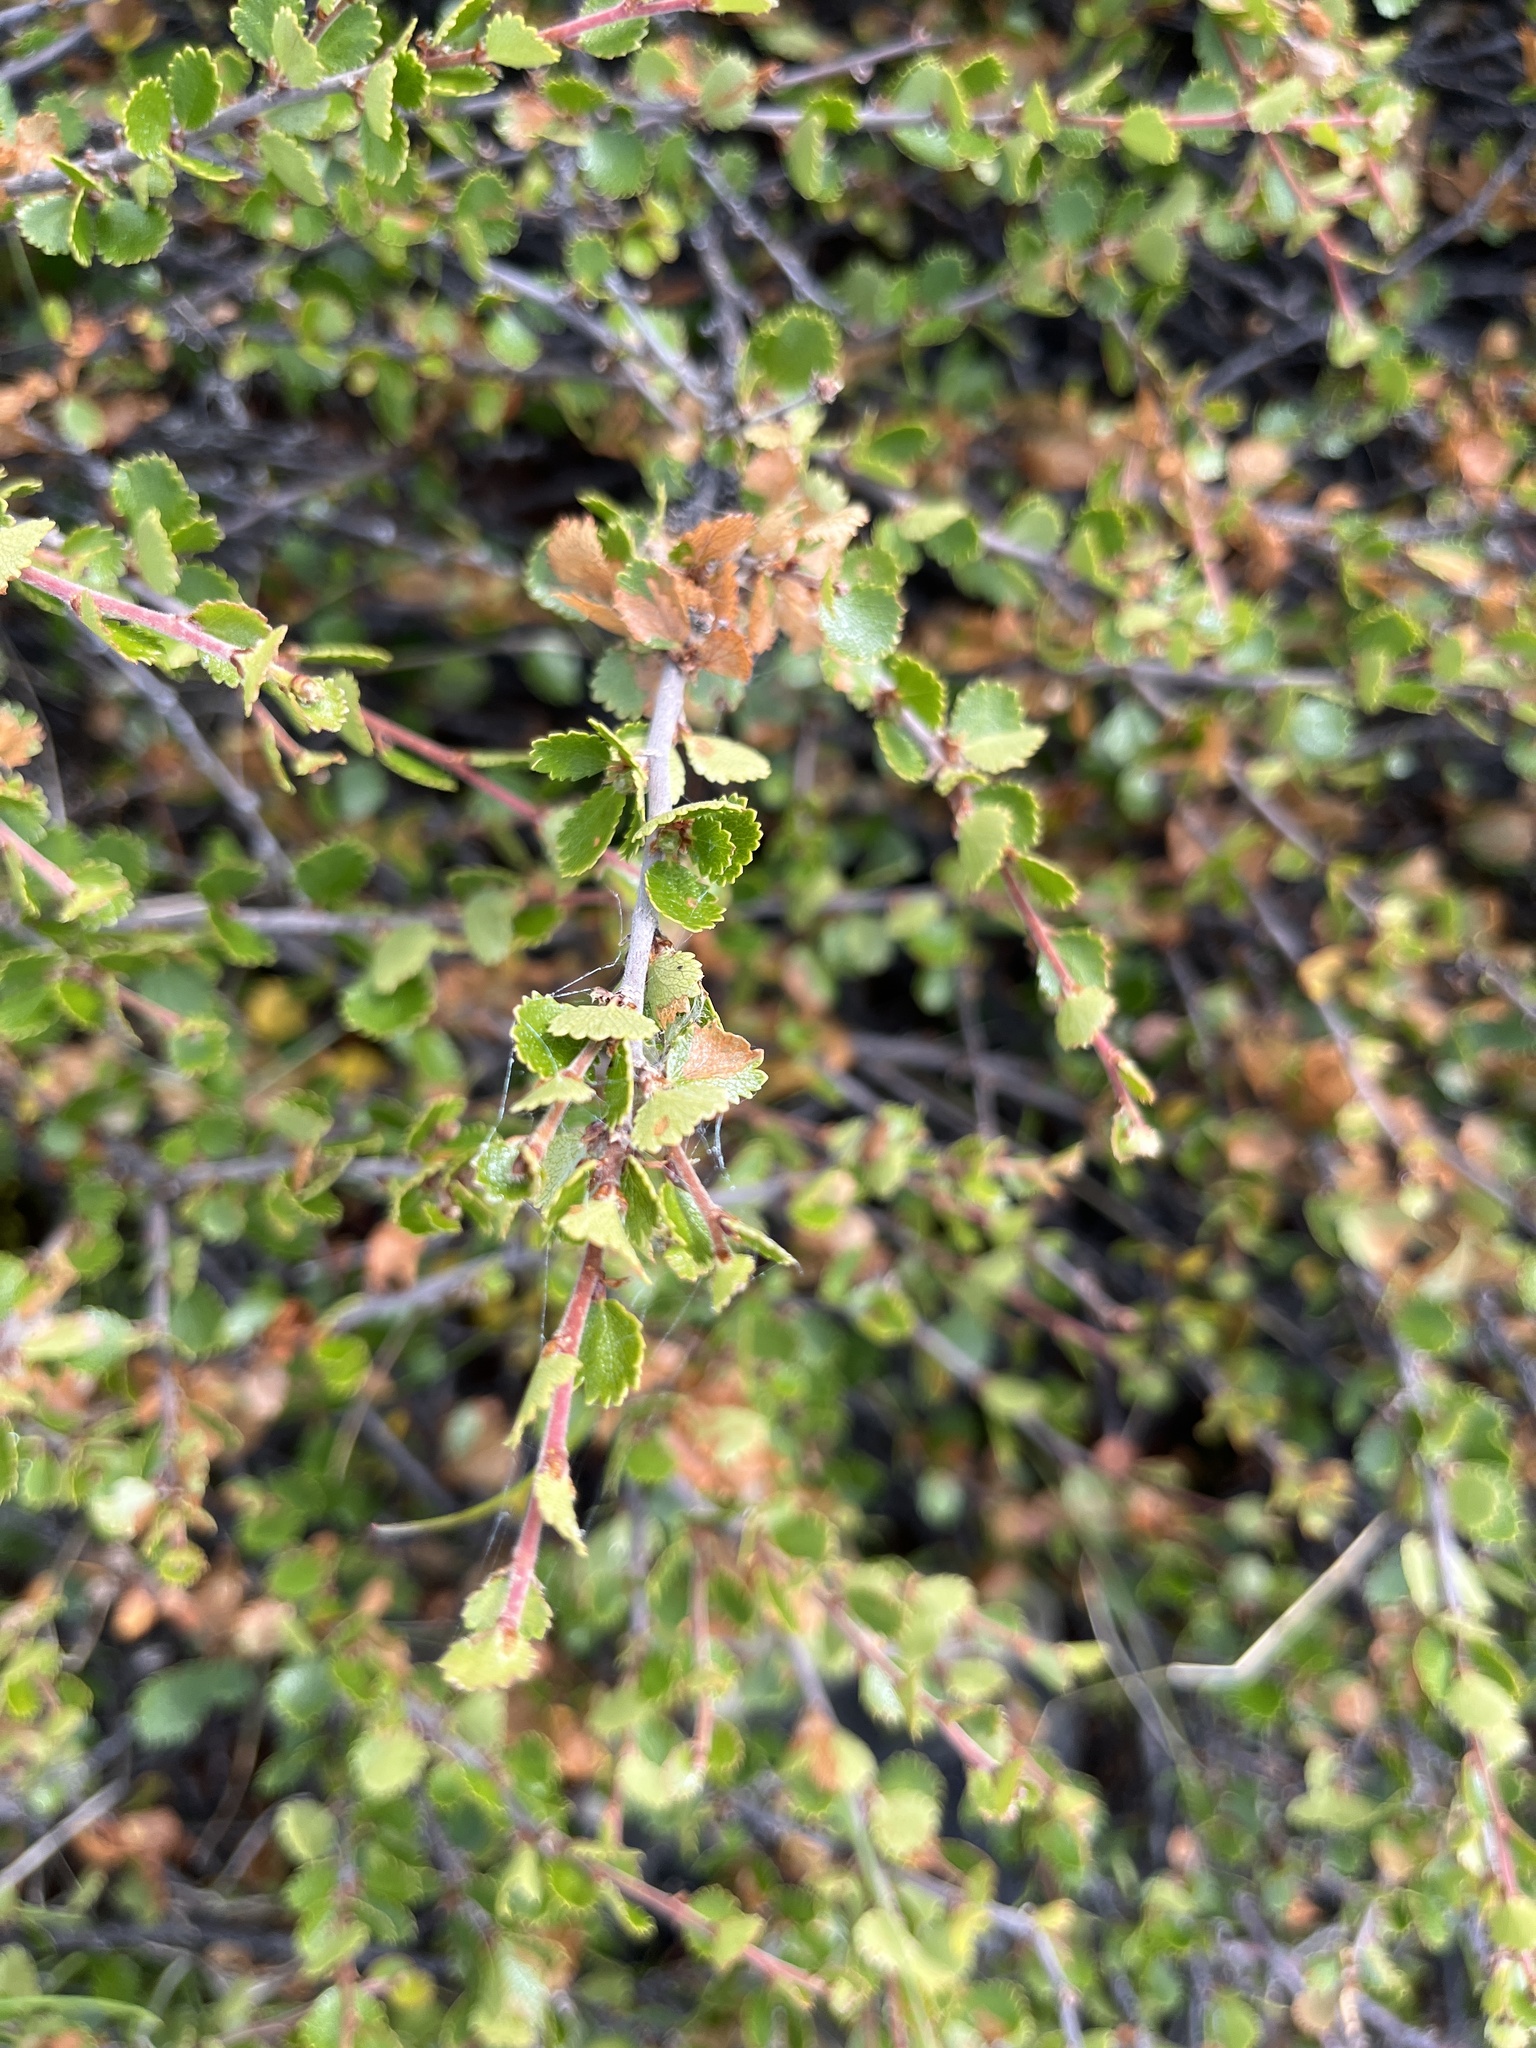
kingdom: Plantae
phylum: Tracheophyta
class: Magnoliopsida
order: Fagales
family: Betulaceae
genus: Betula
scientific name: Betula nana
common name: Arctic dwarf birch
